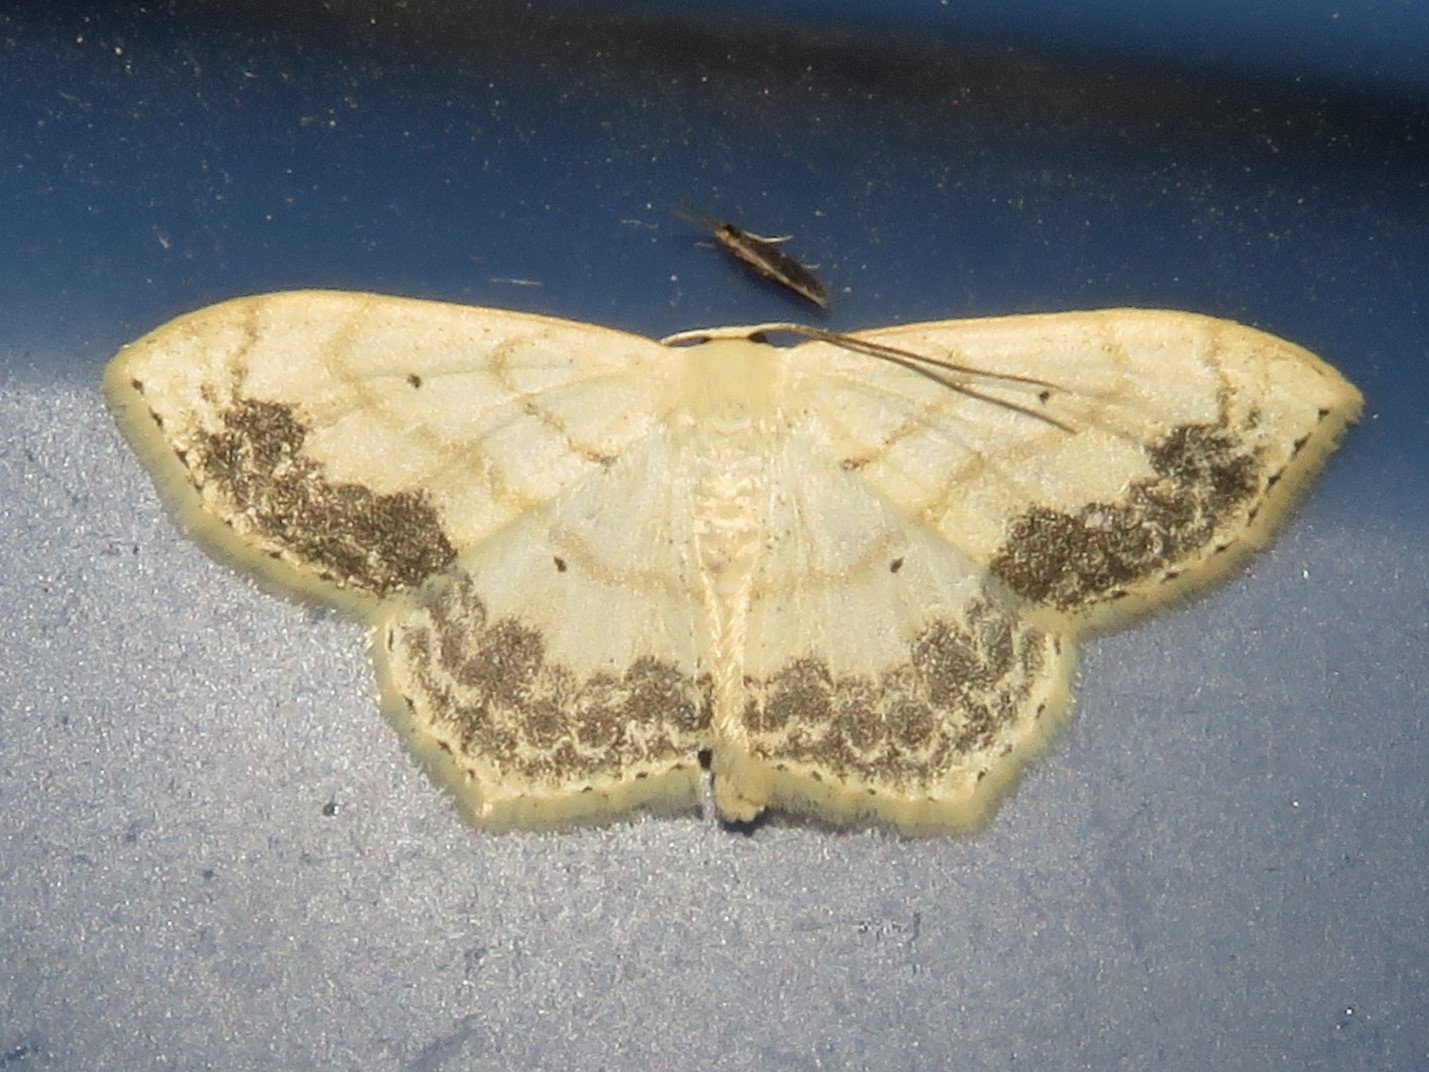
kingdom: Animalia
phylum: Arthropoda
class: Insecta
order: Lepidoptera
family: Geometridae
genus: Scopula
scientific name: Scopula limboundata
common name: Large lace border
